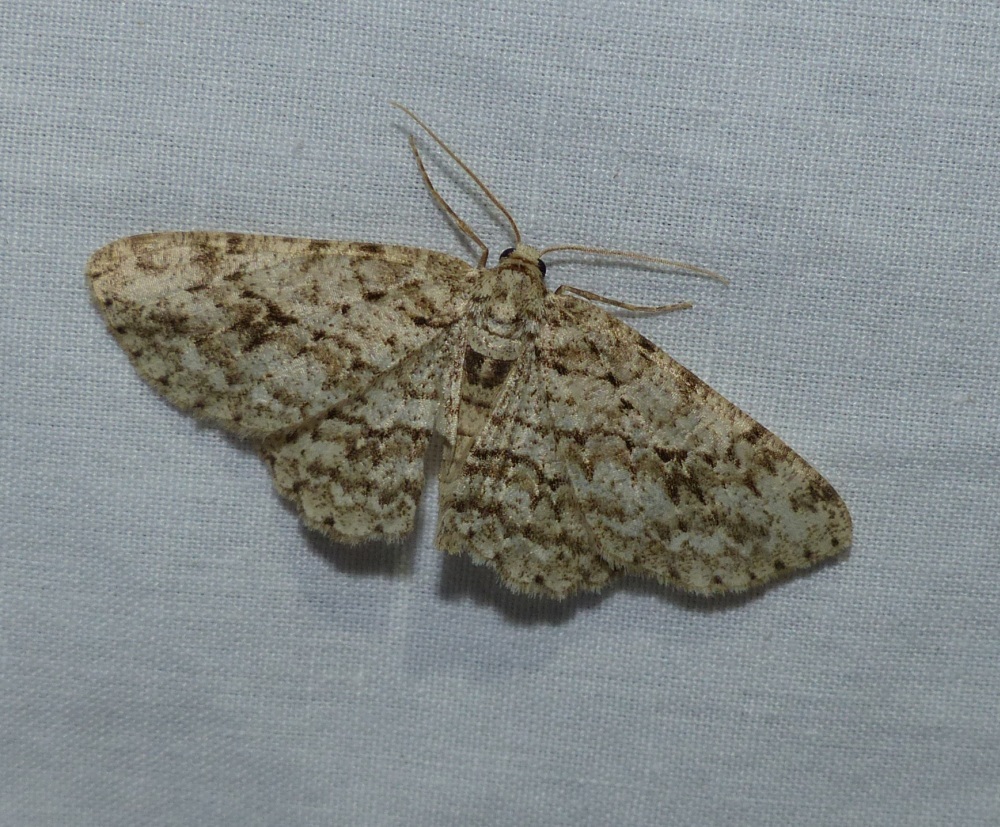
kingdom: Animalia
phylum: Arthropoda
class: Insecta
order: Lepidoptera
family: Geometridae
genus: Ectropis
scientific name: Ectropis crepuscularia
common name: Engrailed
